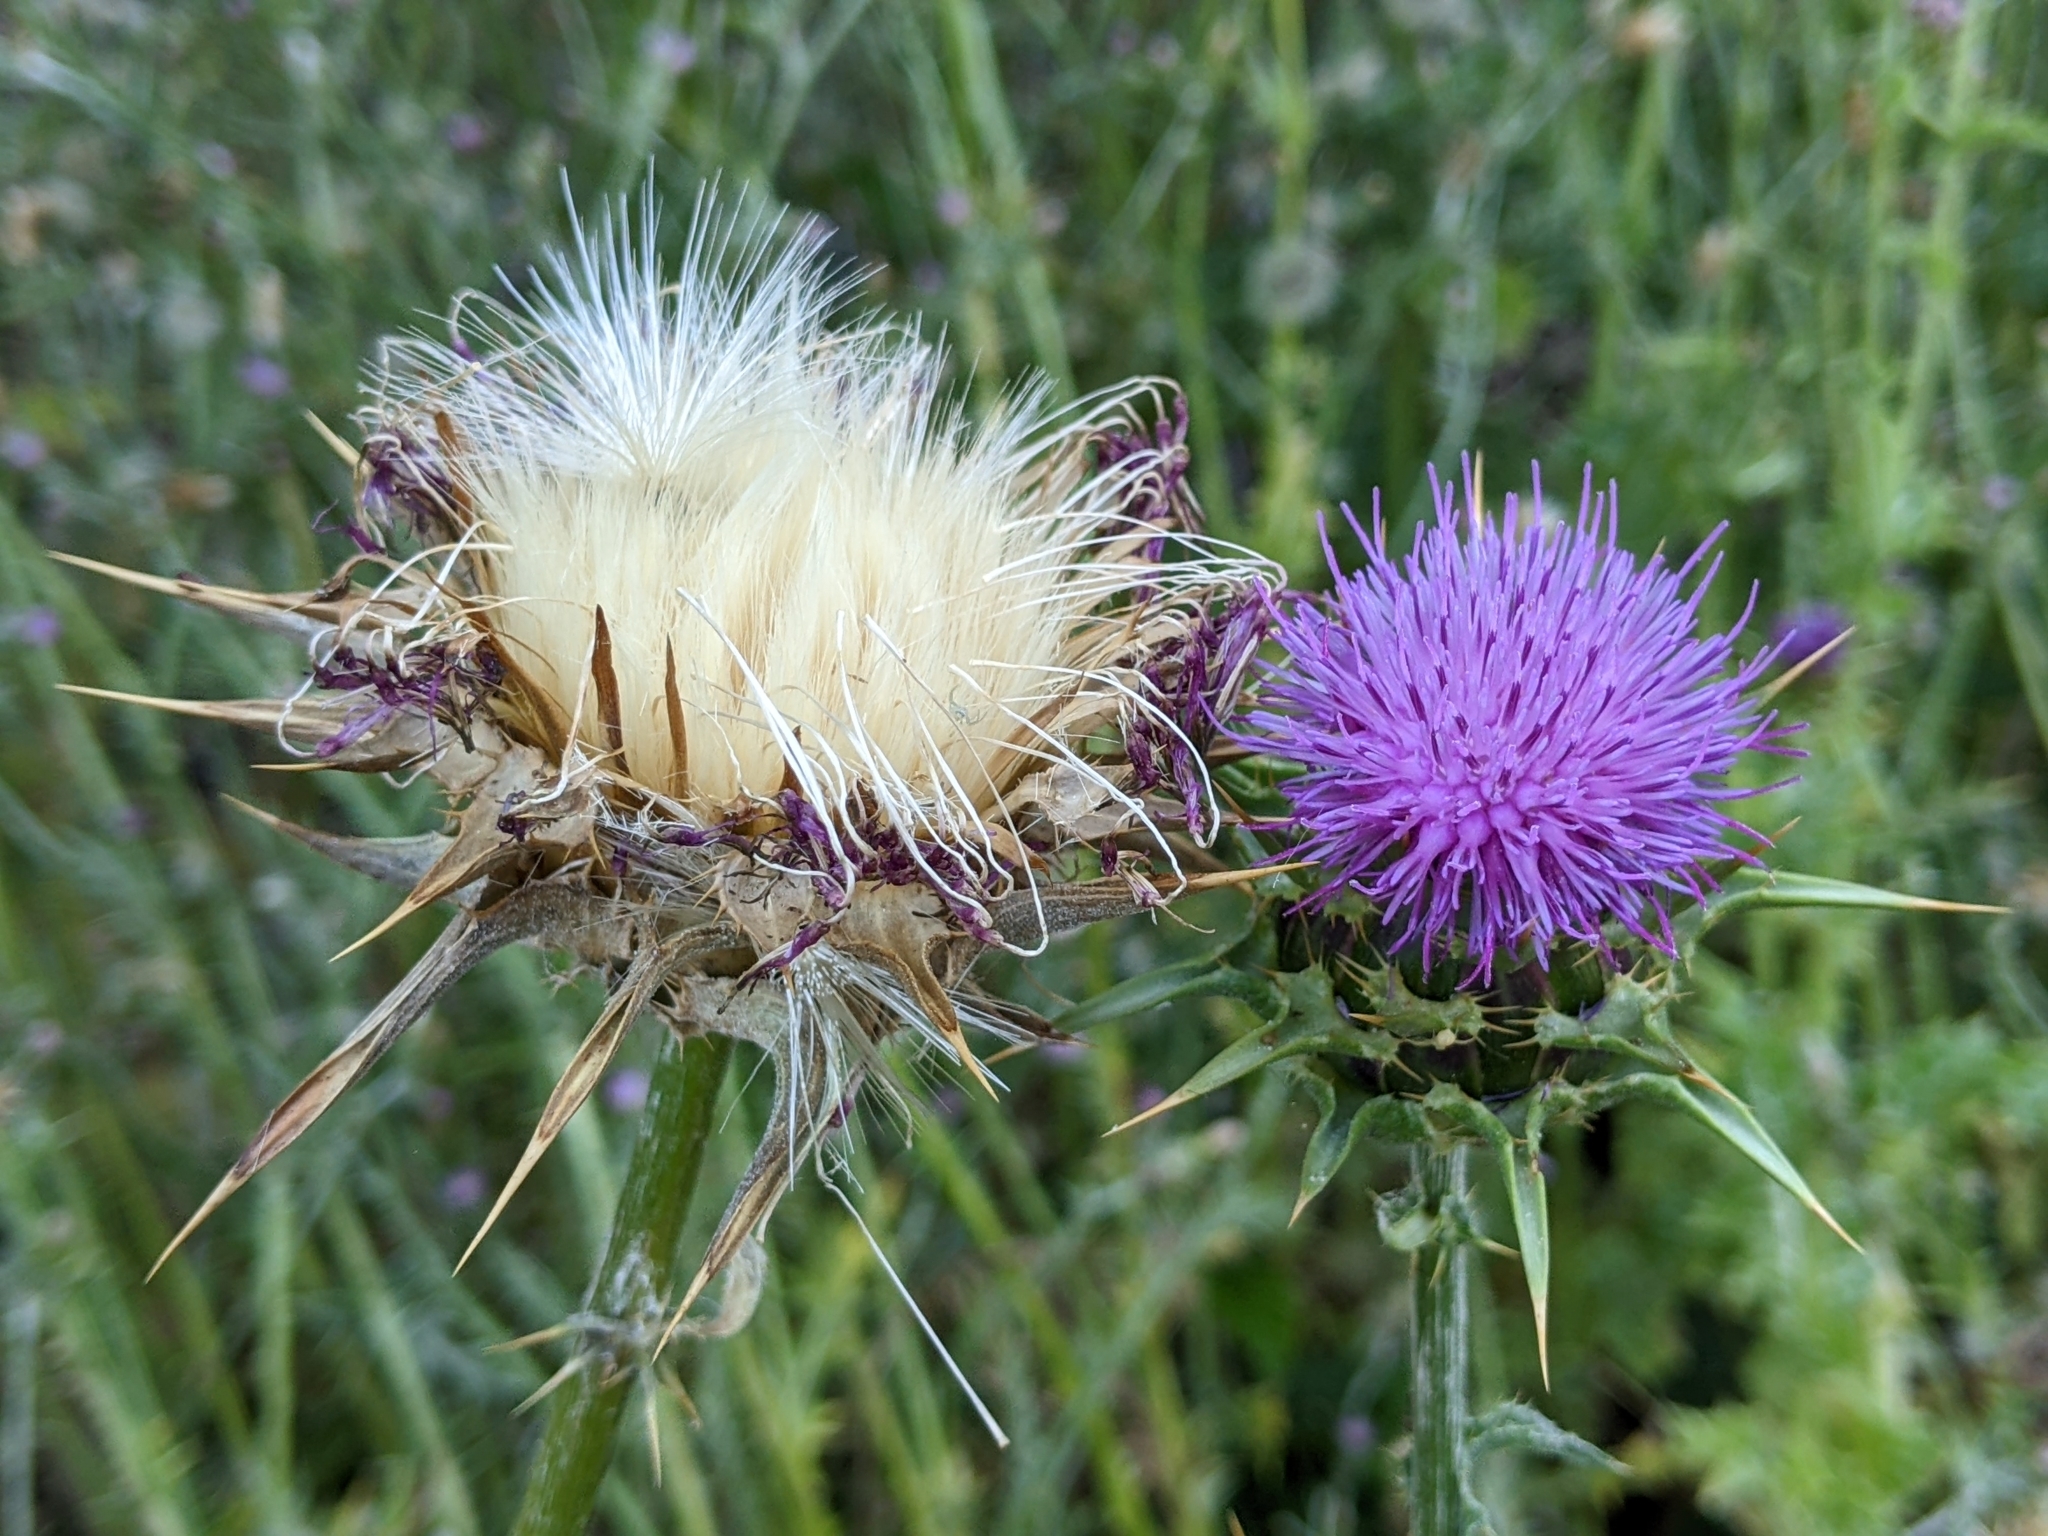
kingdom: Plantae
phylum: Tracheophyta
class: Magnoliopsida
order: Asterales
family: Asteraceae
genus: Silybum
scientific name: Silybum marianum
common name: Milk thistle
